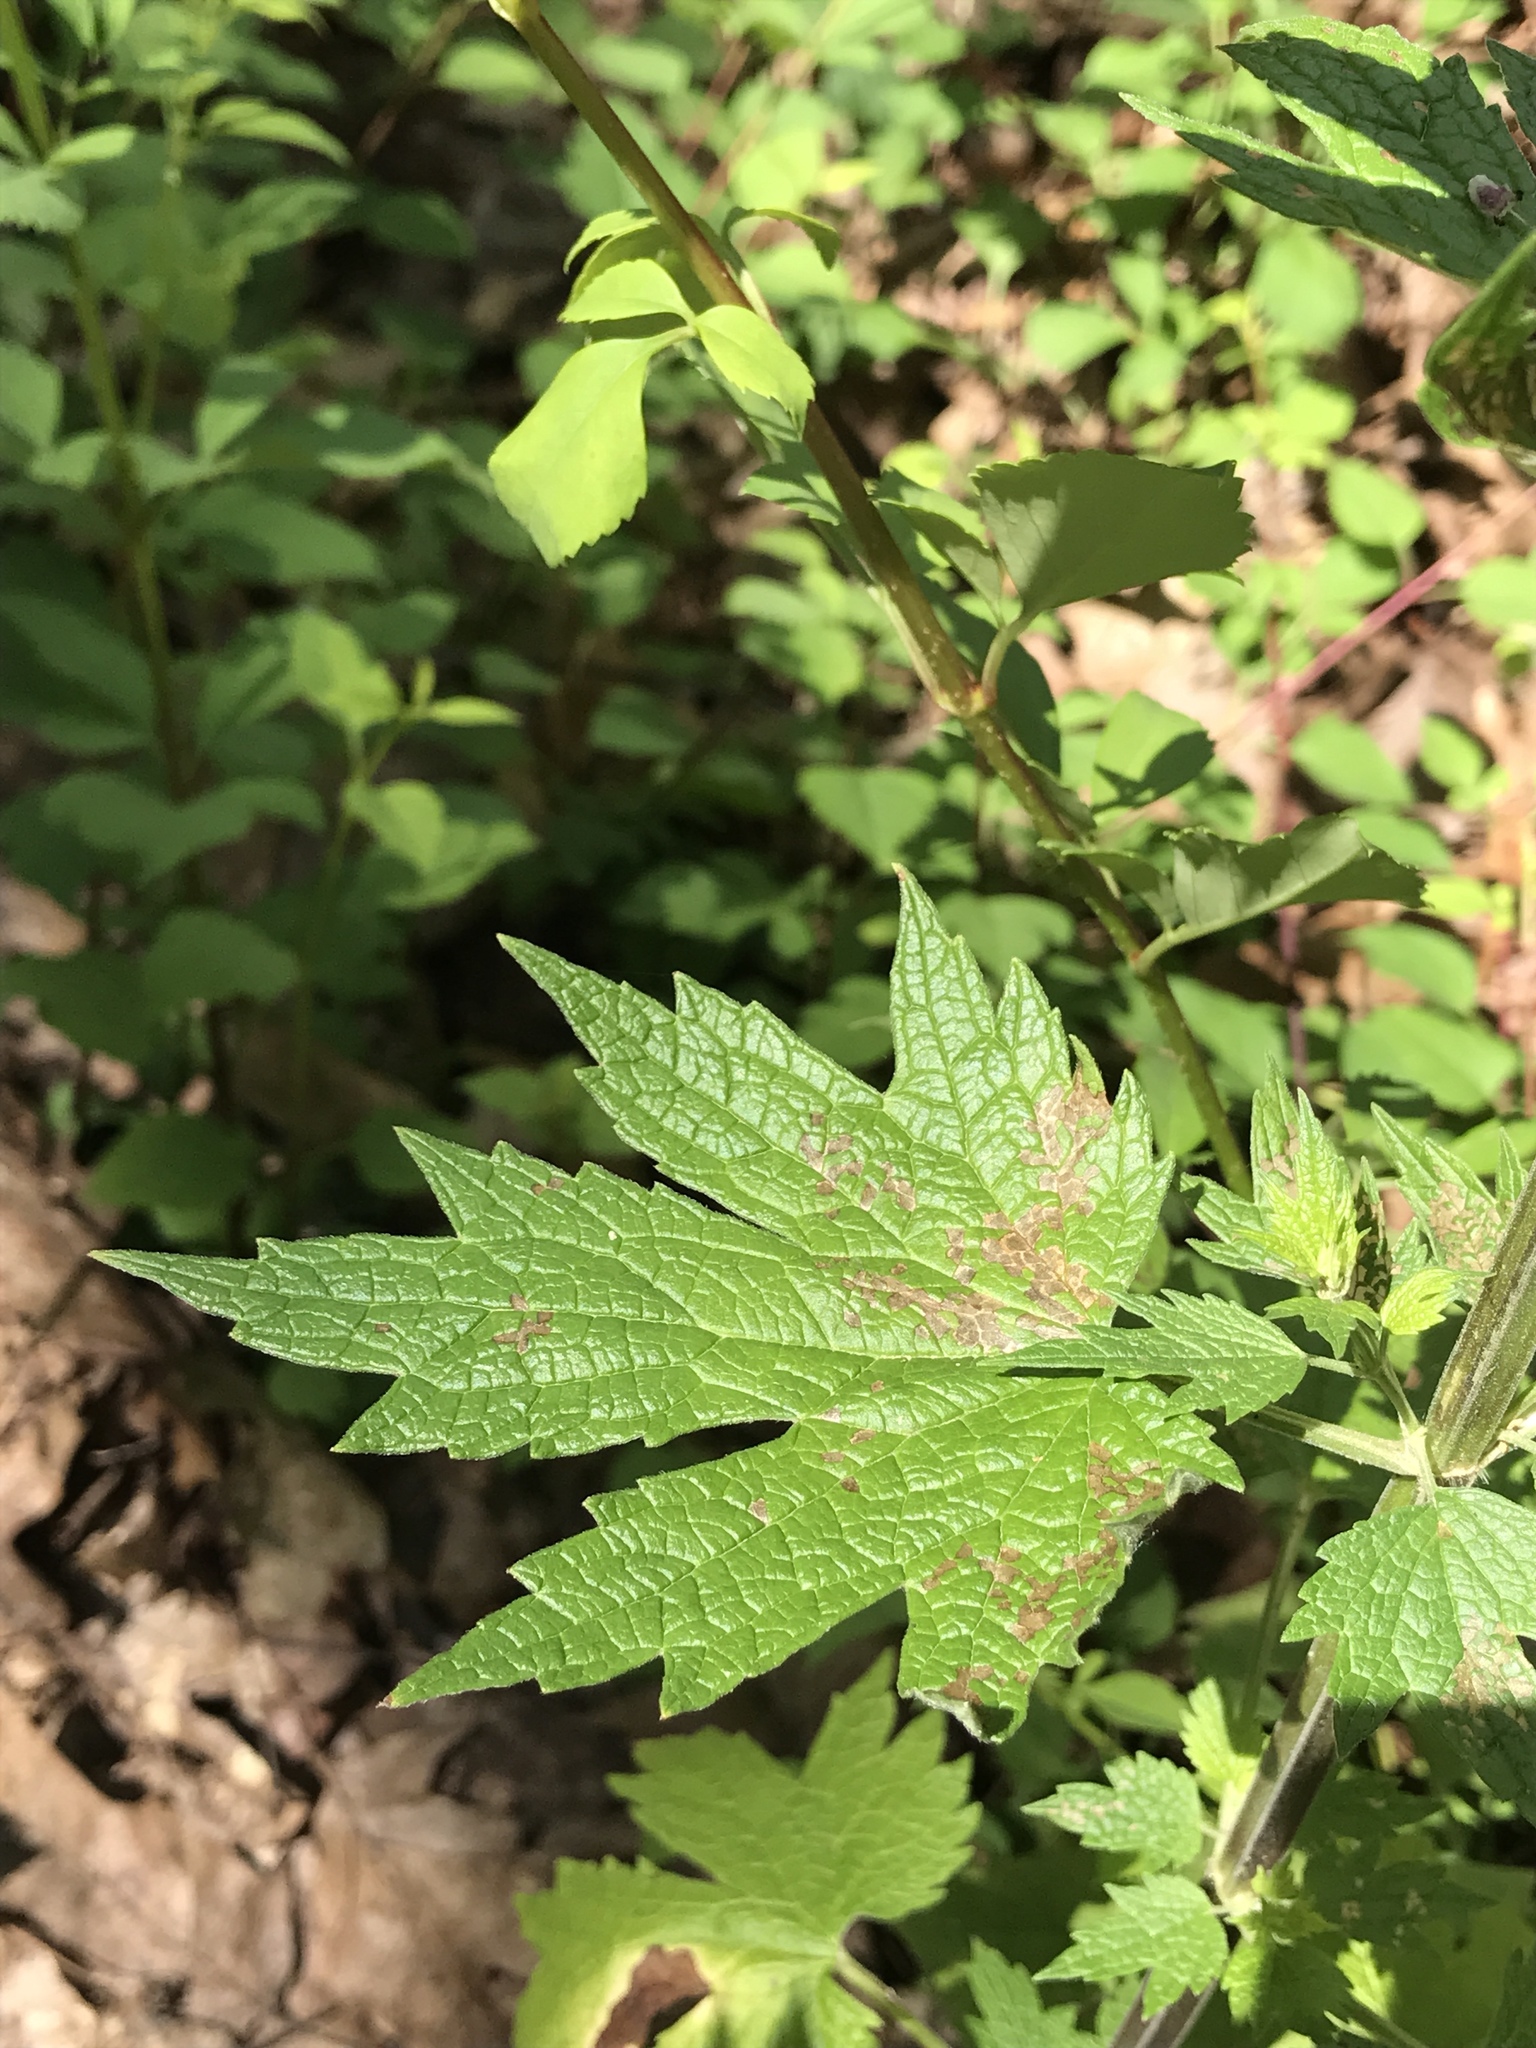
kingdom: Plantae
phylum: Tracheophyta
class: Magnoliopsida
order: Lamiales
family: Lamiaceae
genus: Leonurus
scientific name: Leonurus cardiaca
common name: Motherwort
